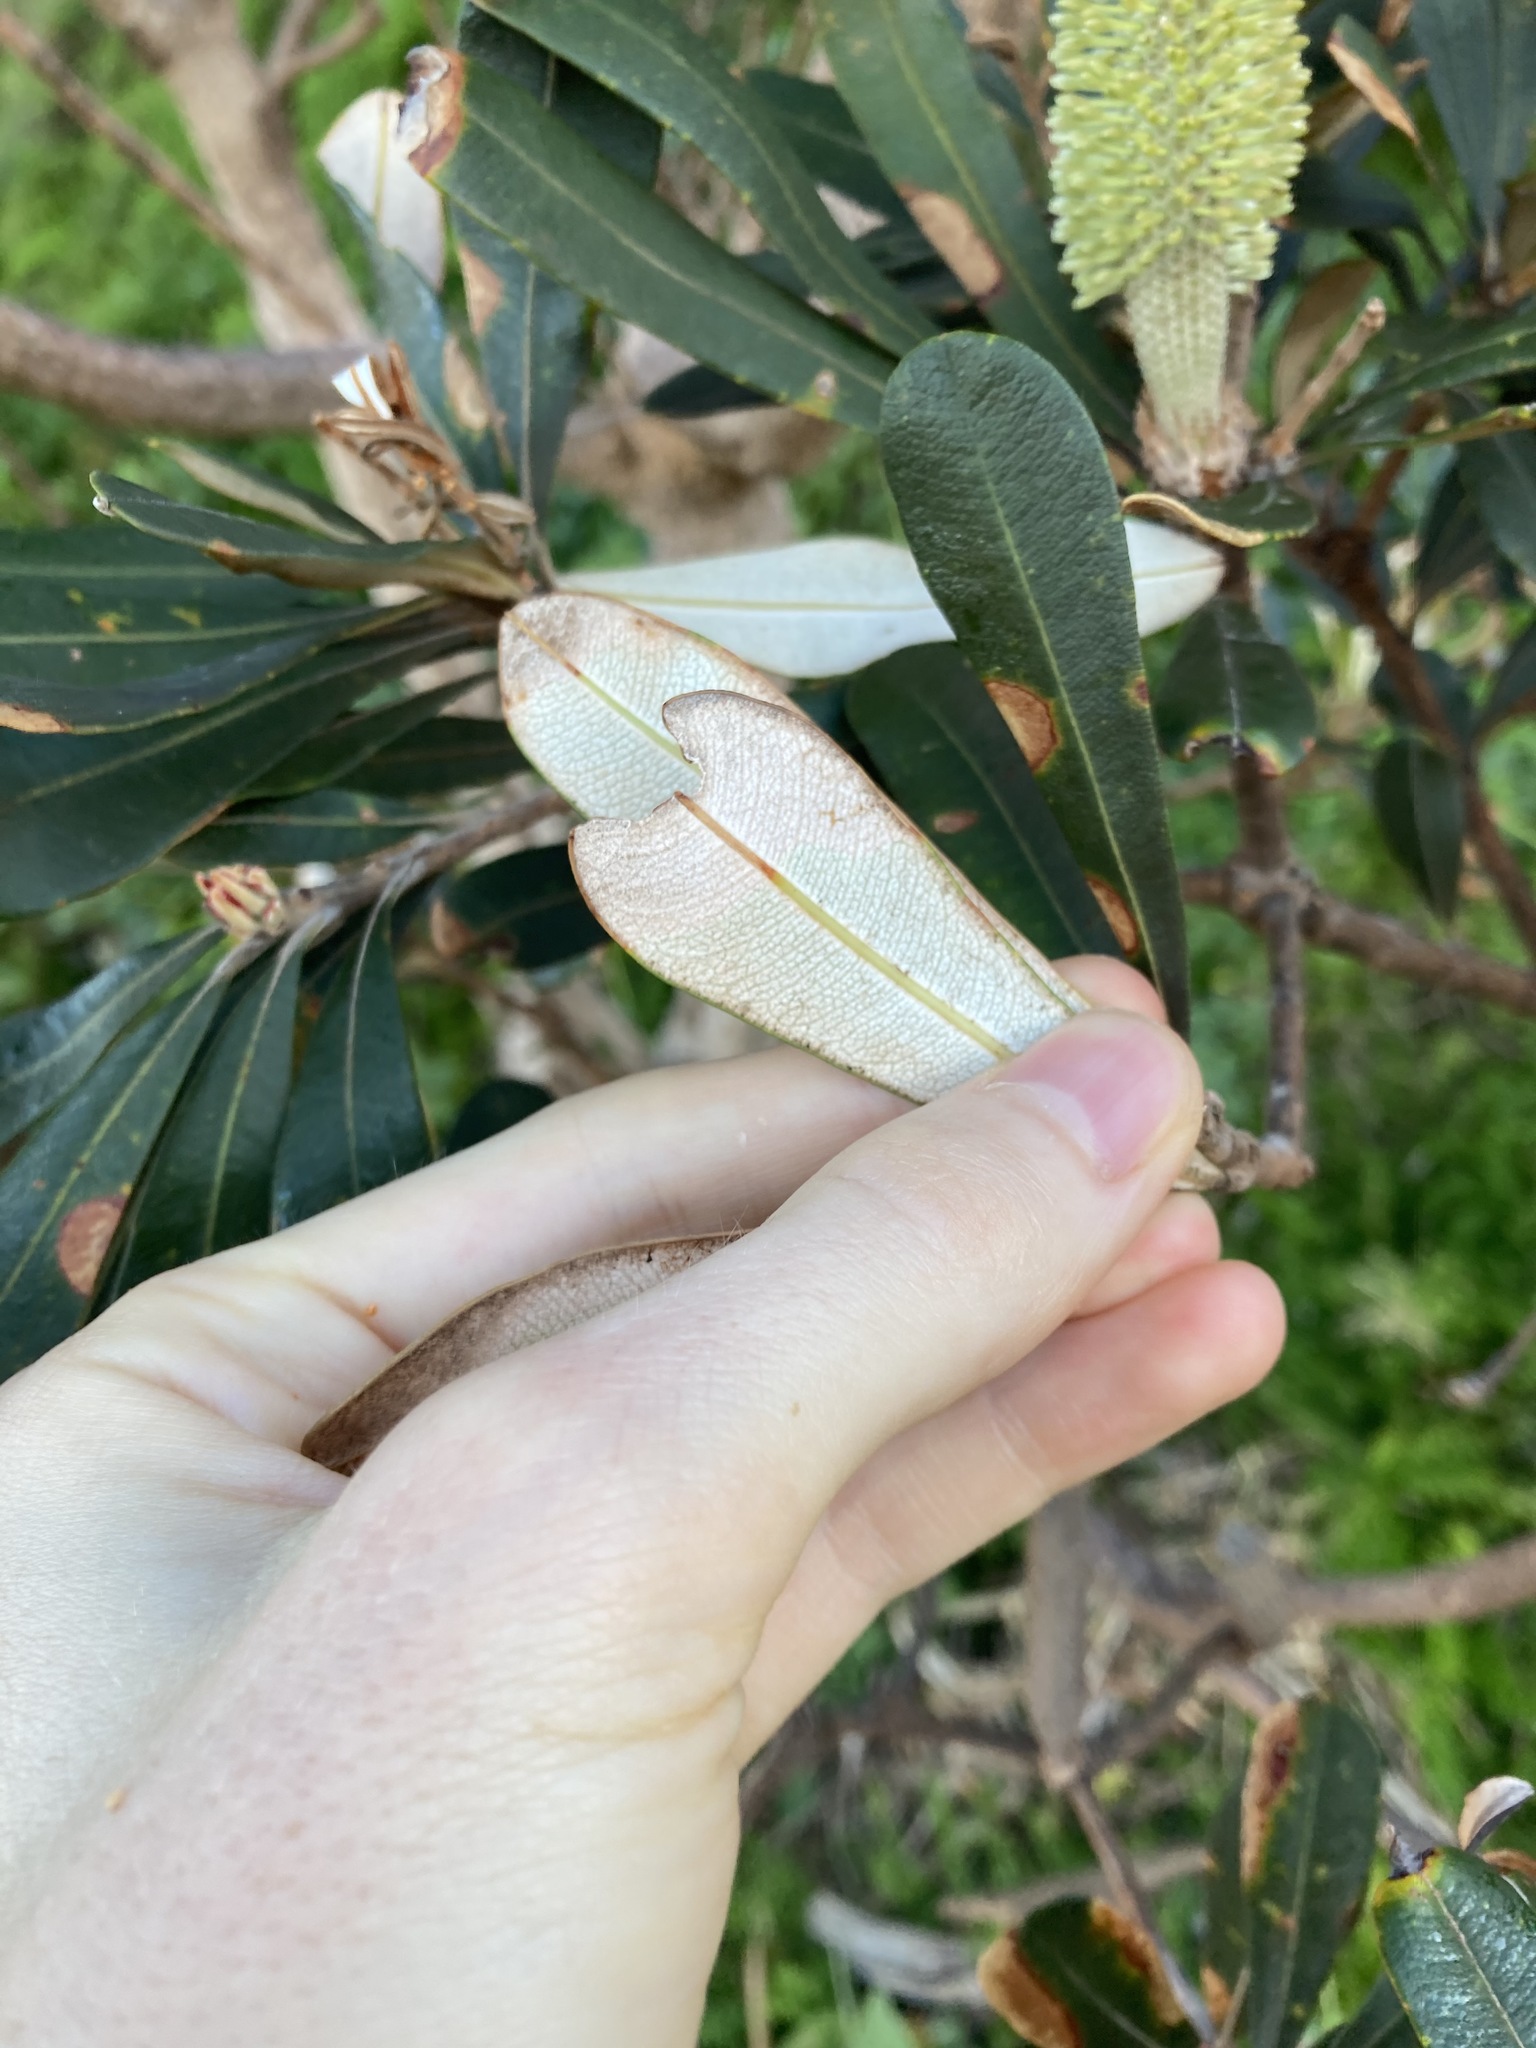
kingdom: Plantae
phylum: Tracheophyta
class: Magnoliopsida
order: Proteales
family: Proteaceae
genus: Banksia
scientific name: Banksia integrifolia
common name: White-honeysuckle
